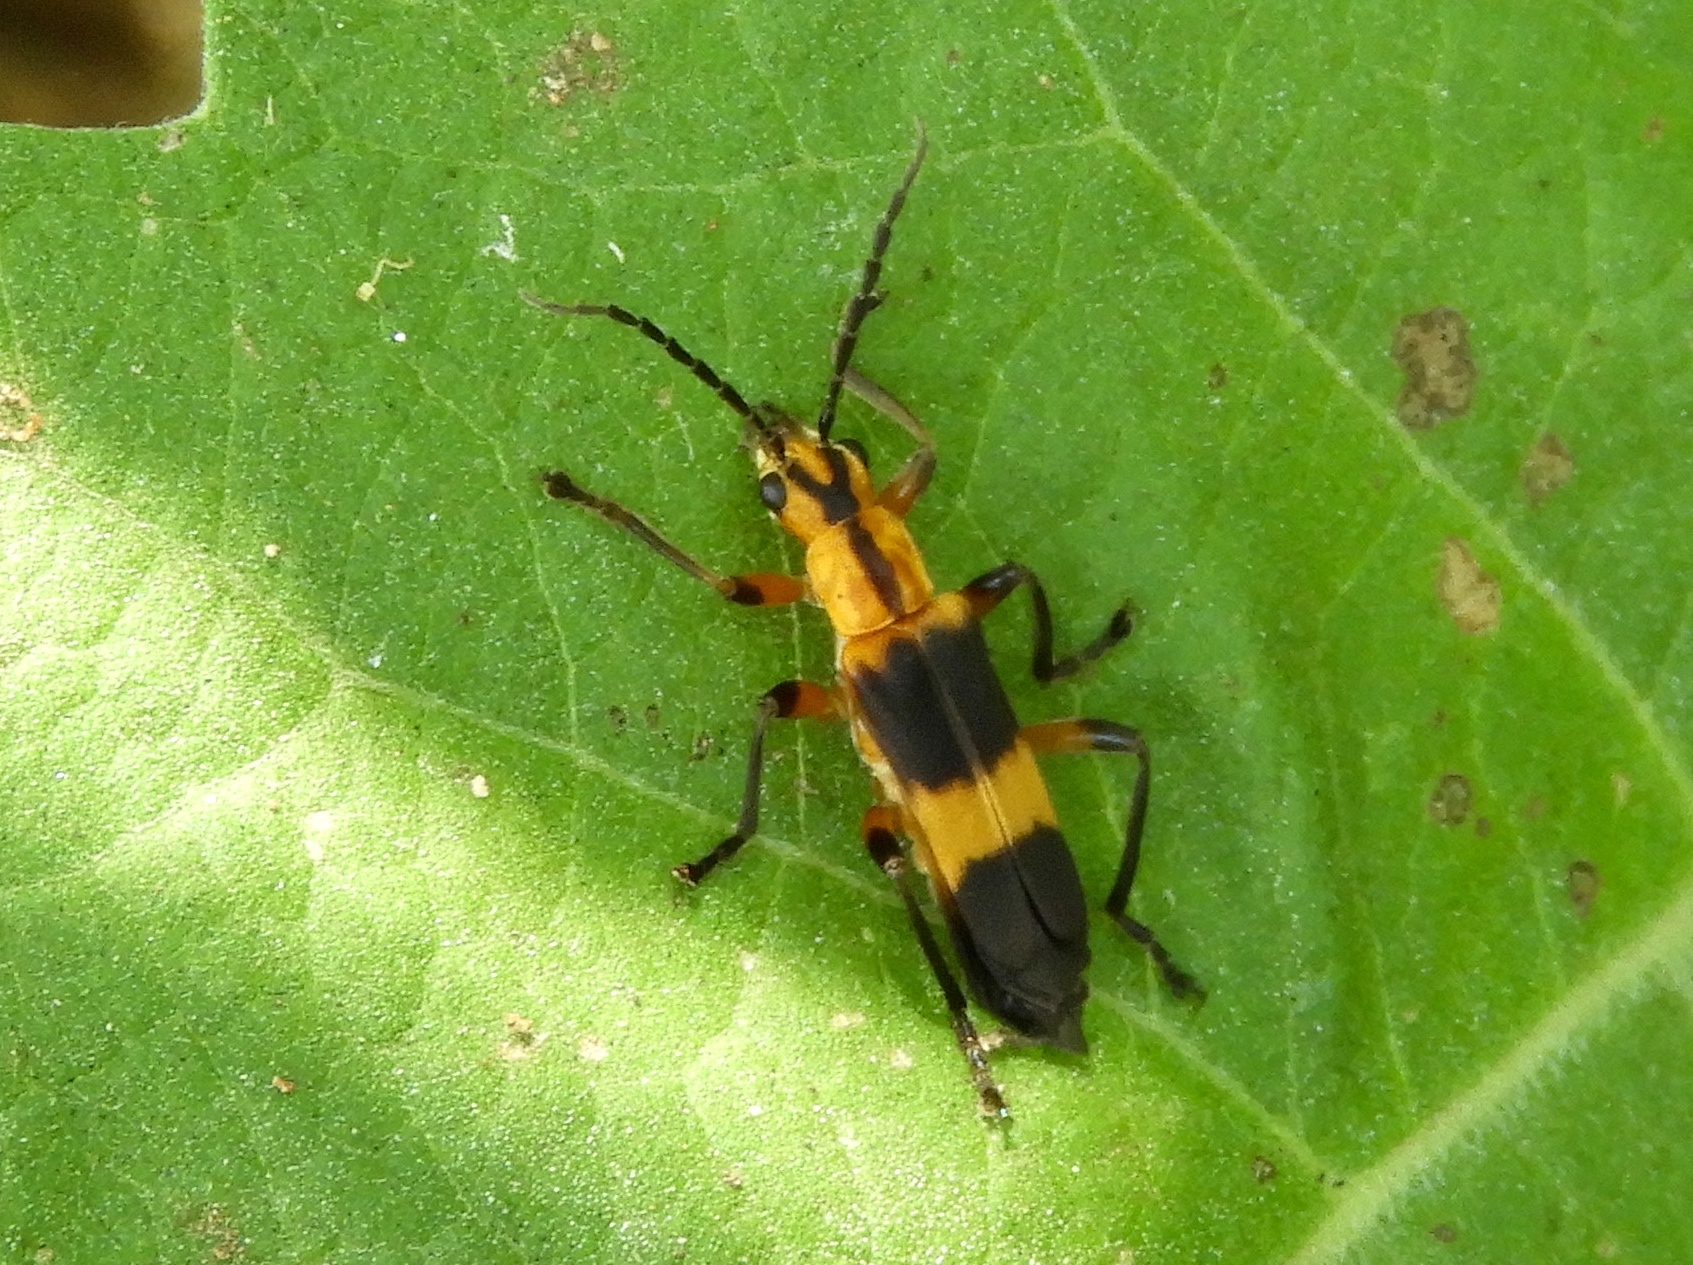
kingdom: Animalia
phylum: Arthropoda
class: Insecta
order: Coleoptera
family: Cantharidae
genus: Daiphron
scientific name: Daiphron proteum
